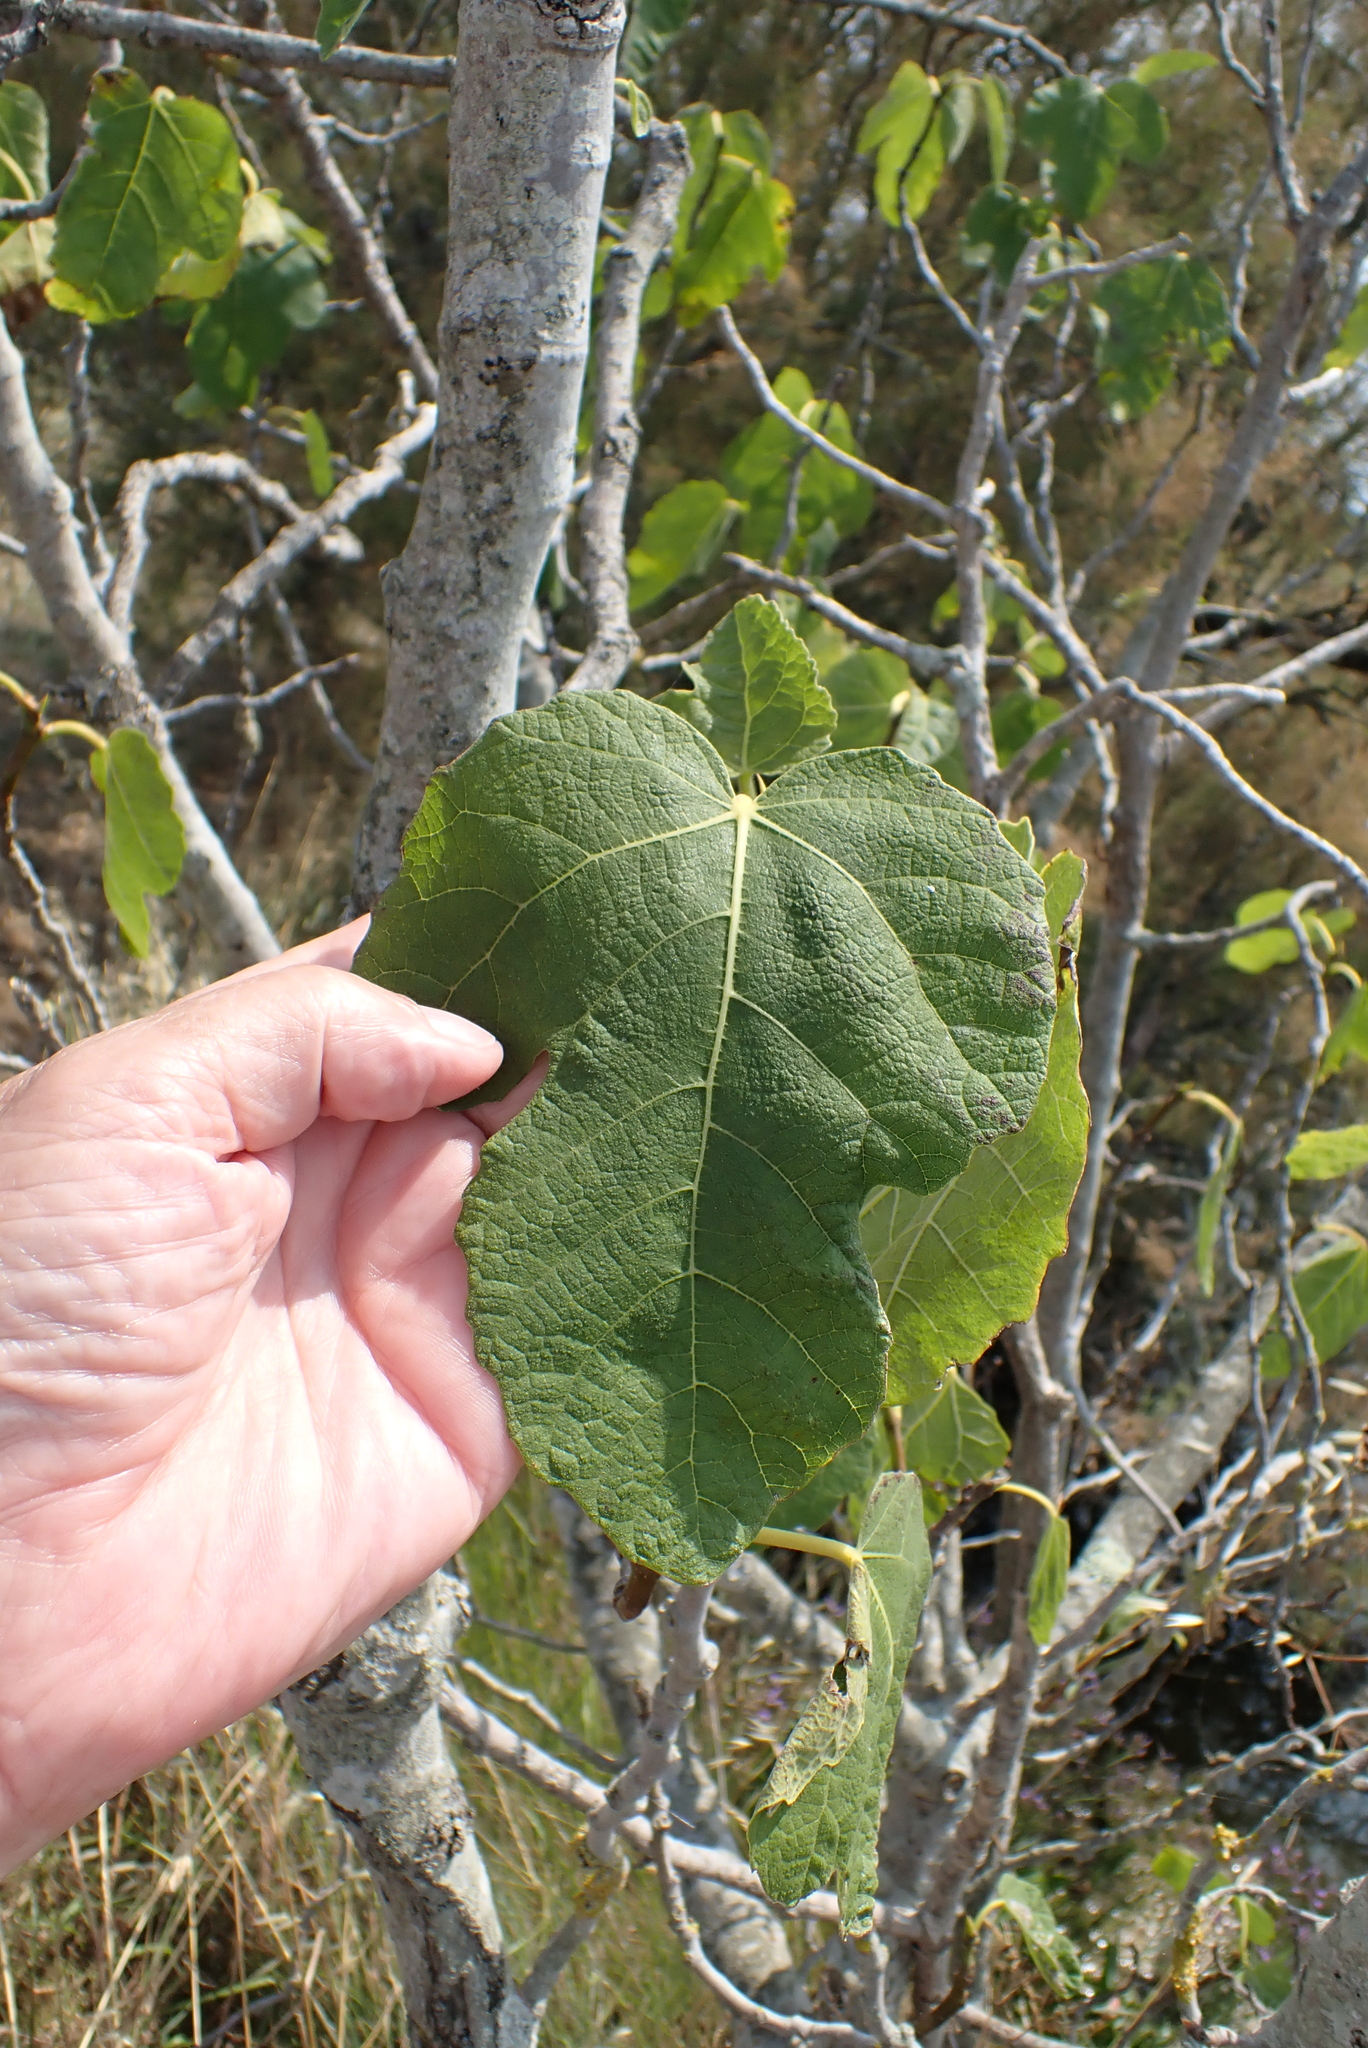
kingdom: Plantae
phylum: Tracheophyta
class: Magnoliopsida
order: Rosales
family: Moraceae
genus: Ficus
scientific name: Ficus carica
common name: Fig
